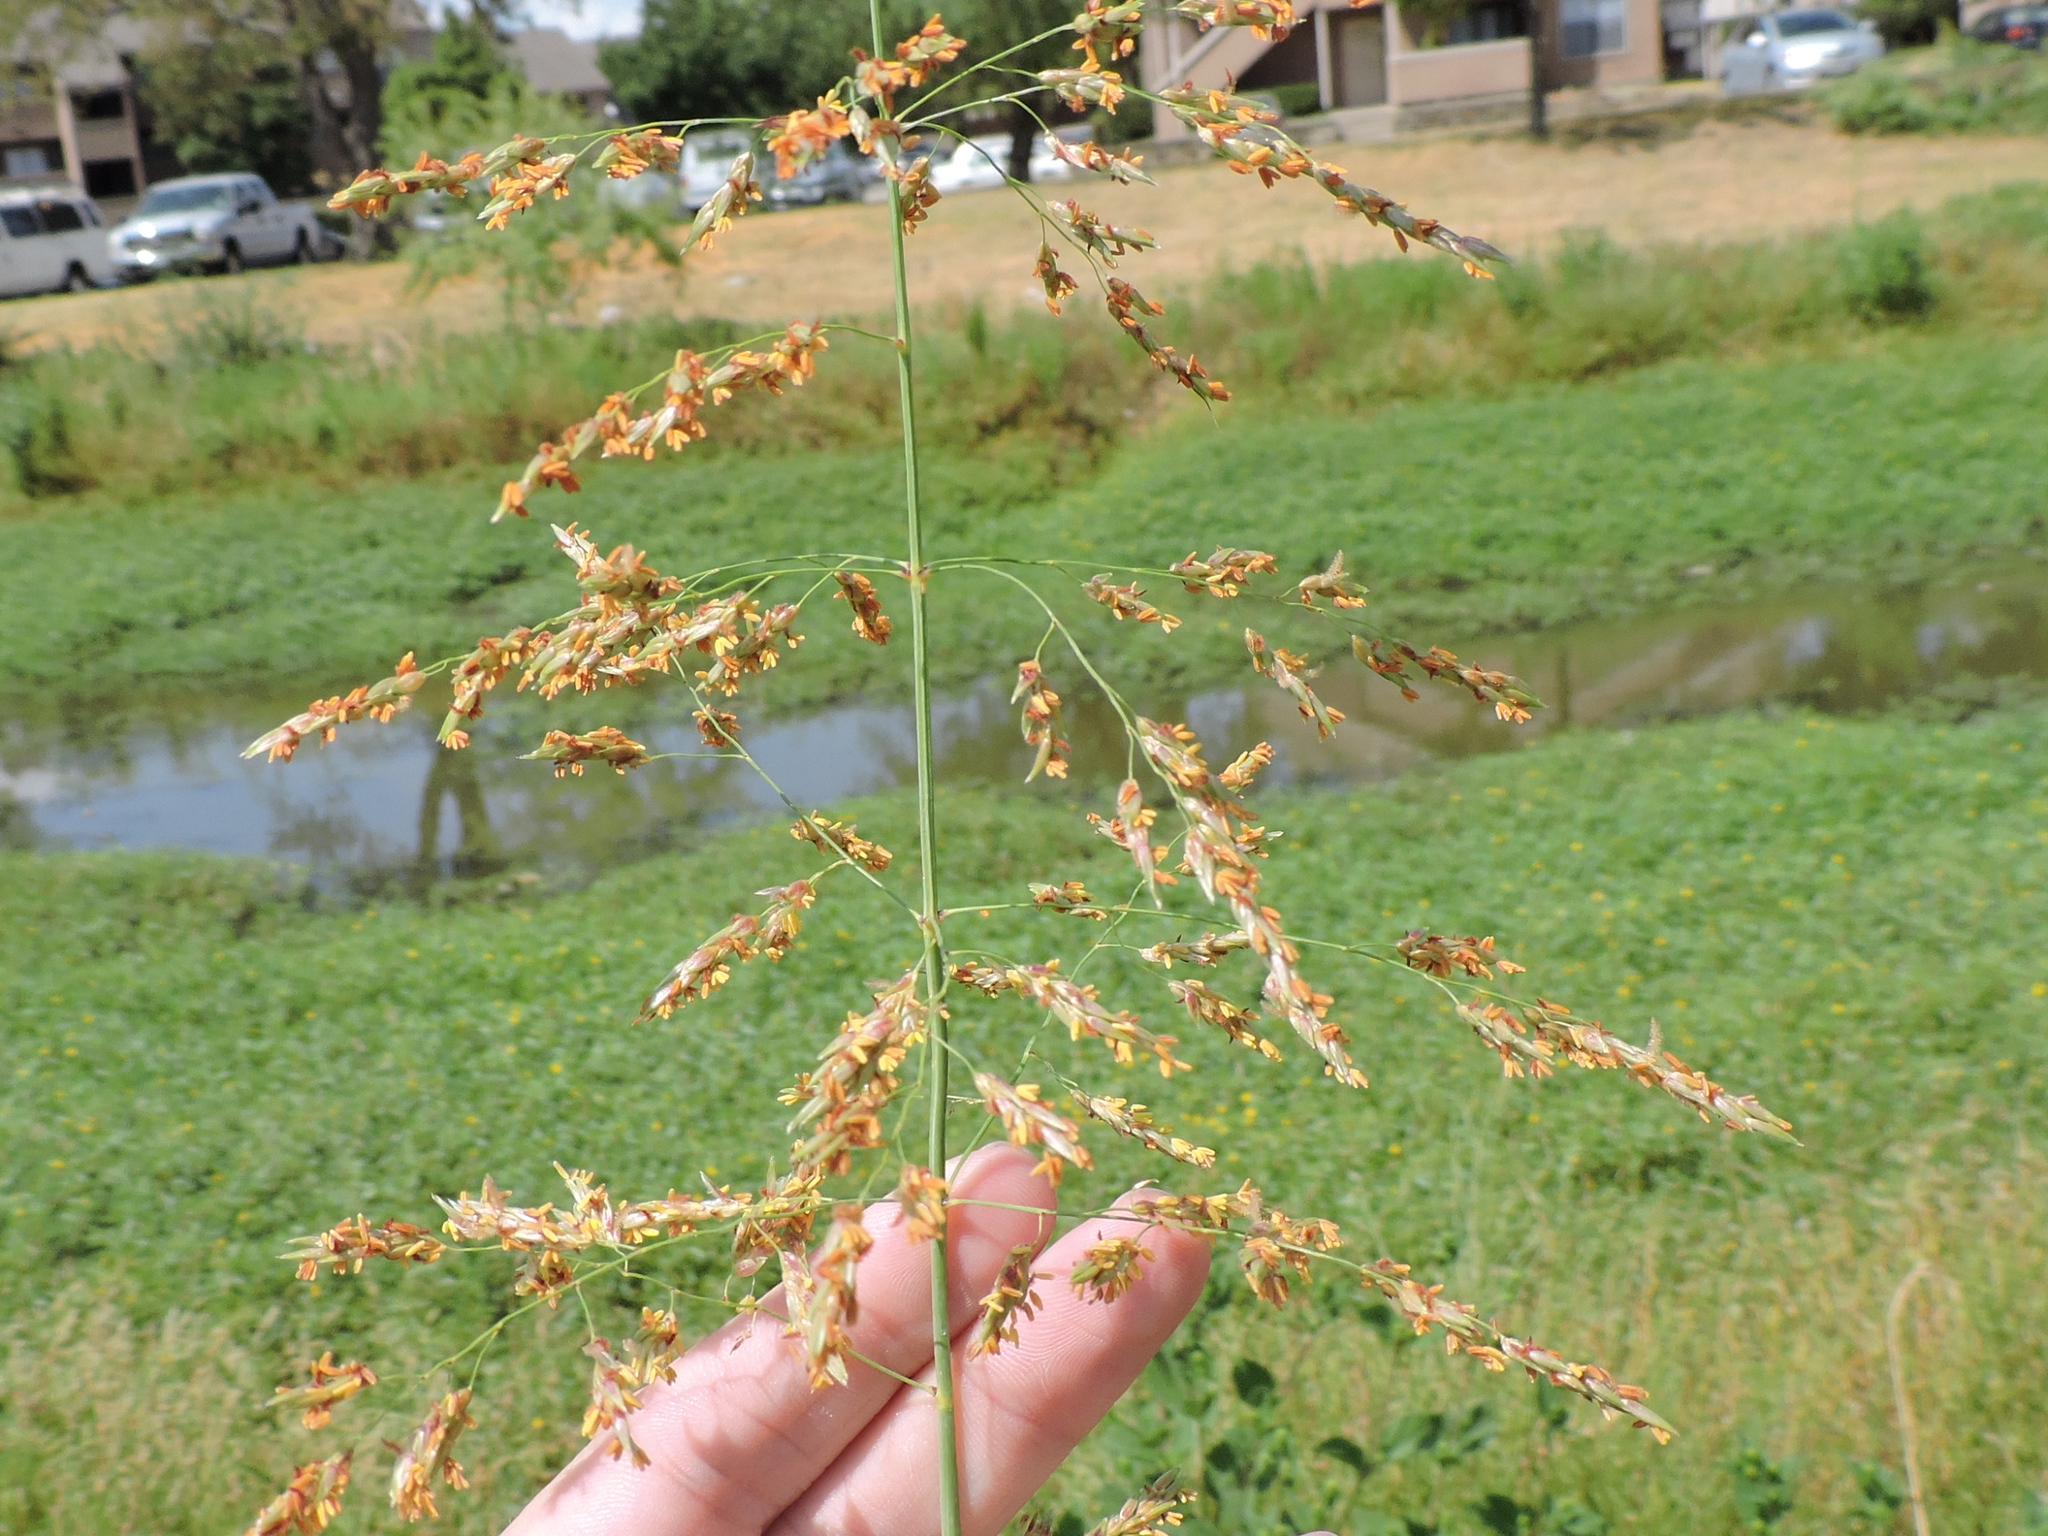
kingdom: Plantae
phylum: Tracheophyta
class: Liliopsida
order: Poales
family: Poaceae
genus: Sorghum
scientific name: Sorghum halepense
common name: Johnson-grass
